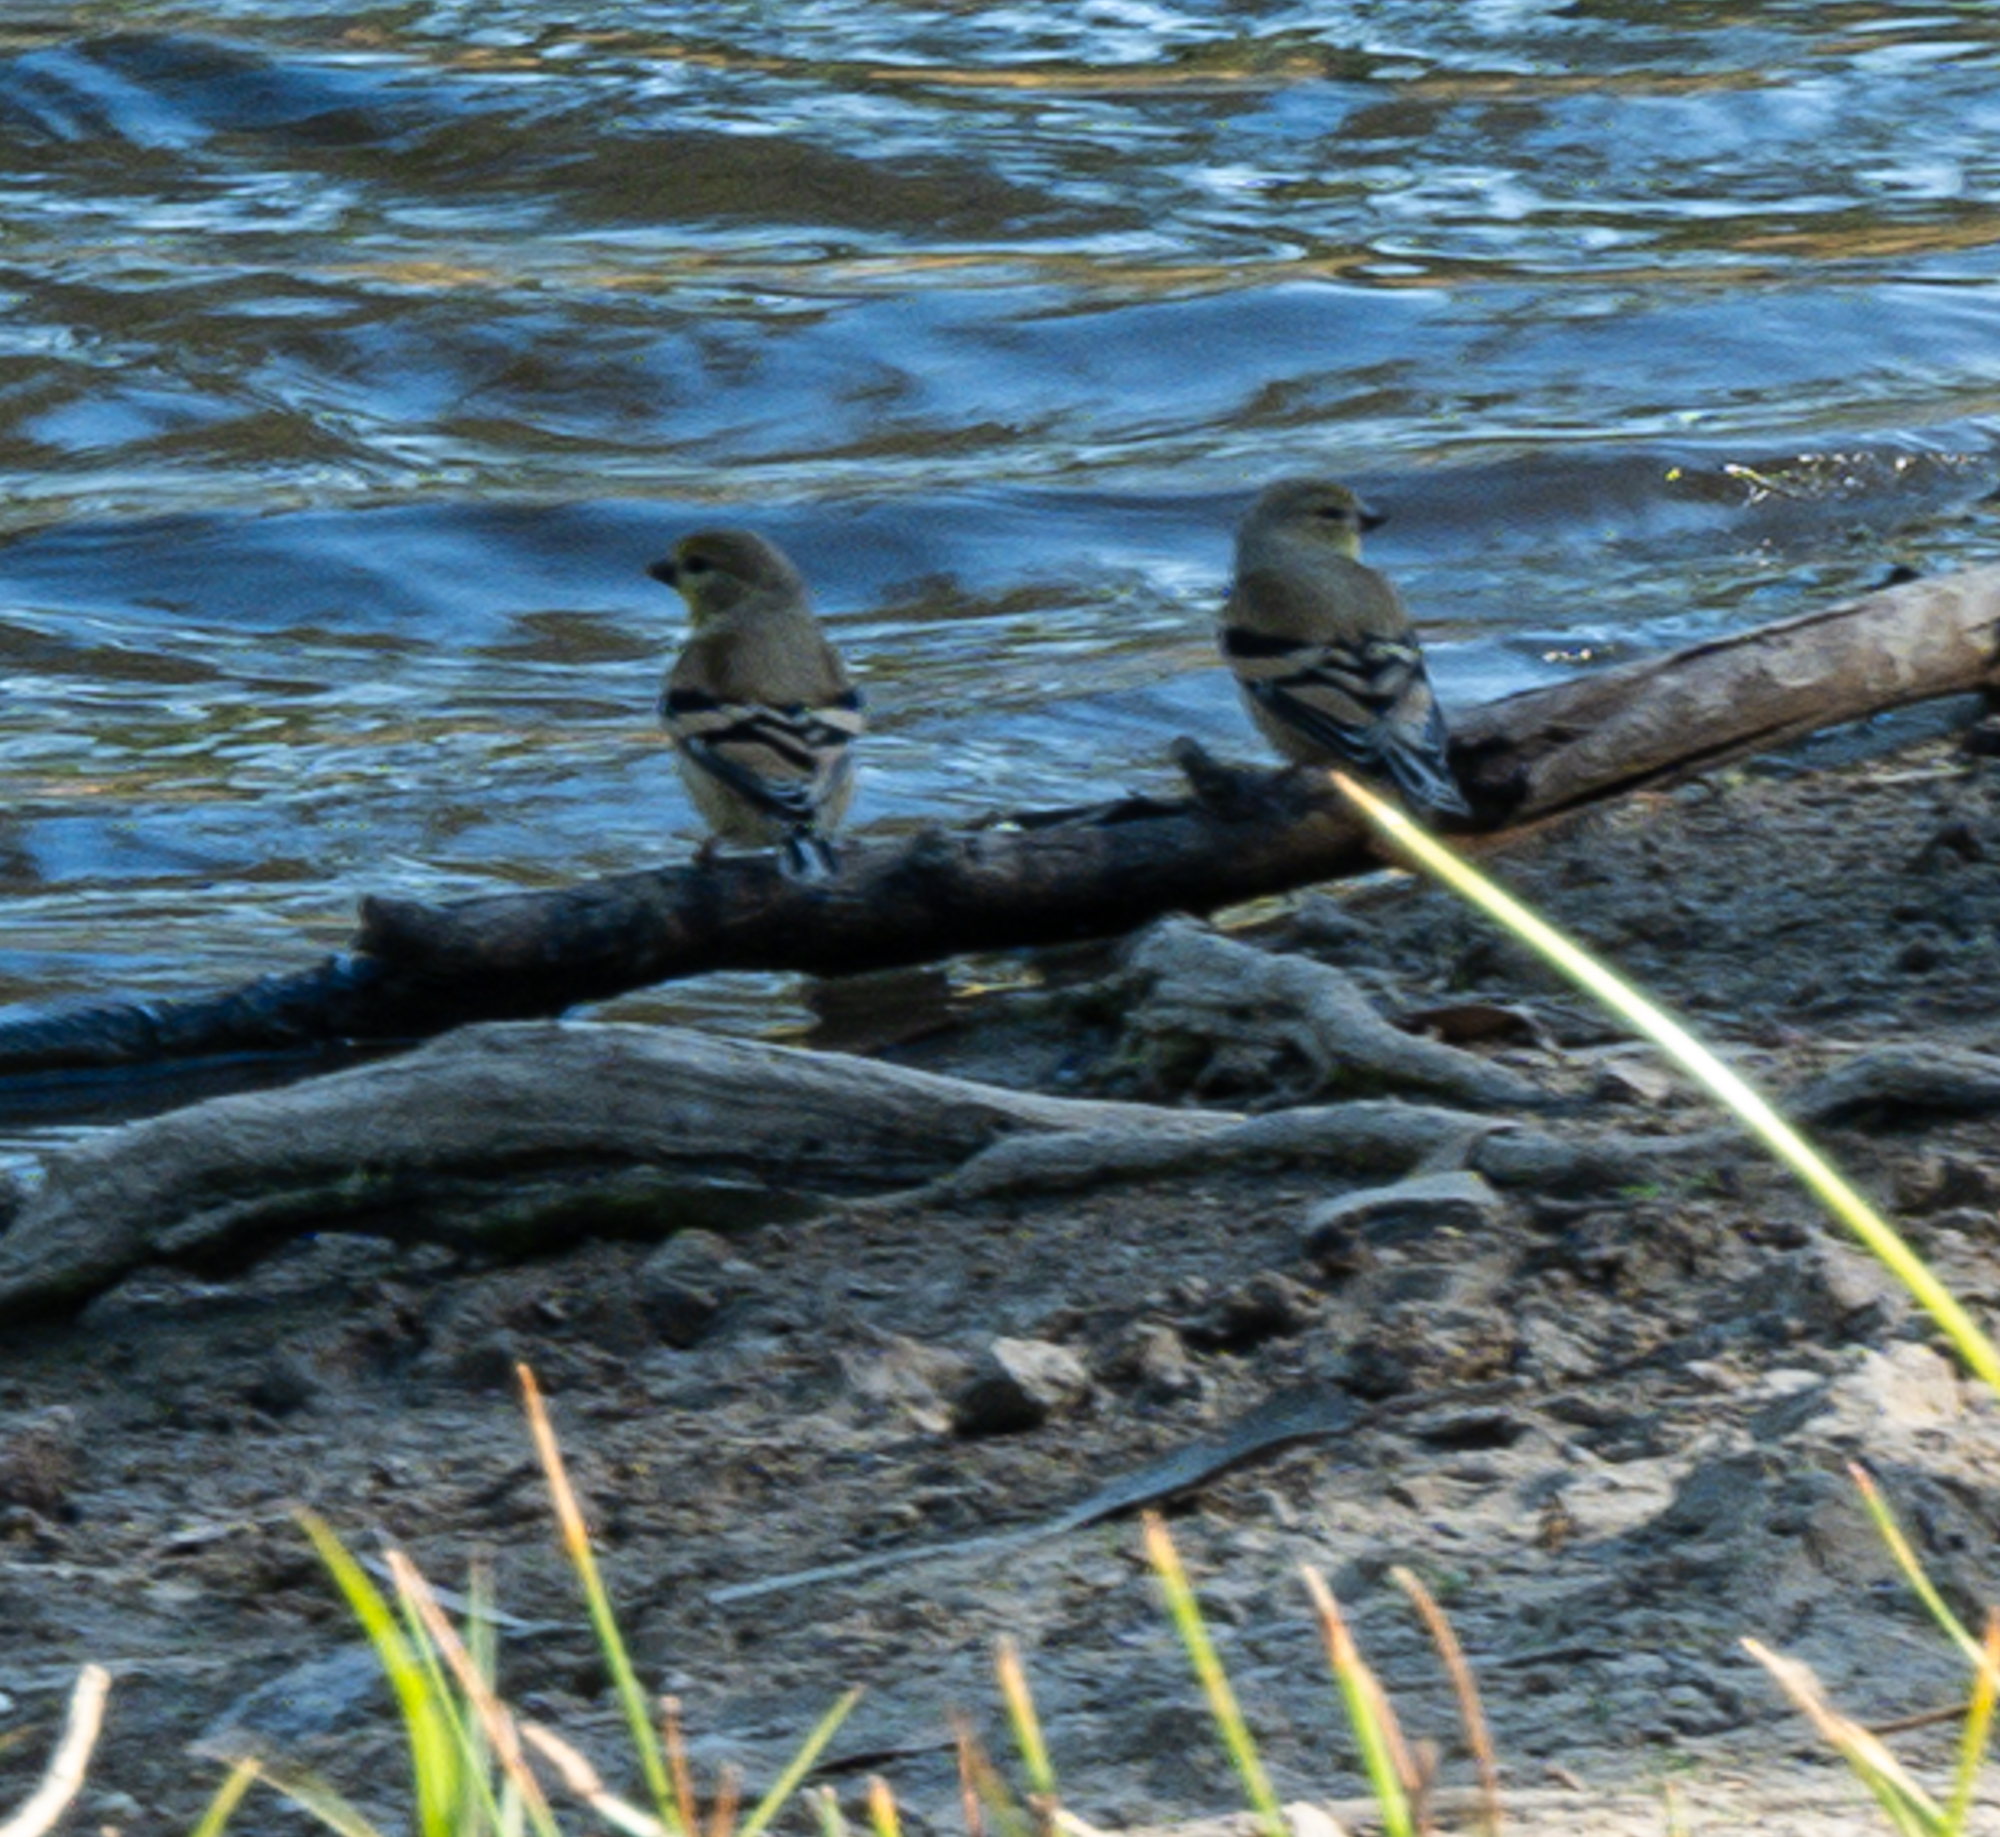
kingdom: Animalia
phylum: Chordata
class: Aves
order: Passeriformes
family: Fringillidae
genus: Spinus
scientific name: Spinus tristis
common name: American goldfinch
